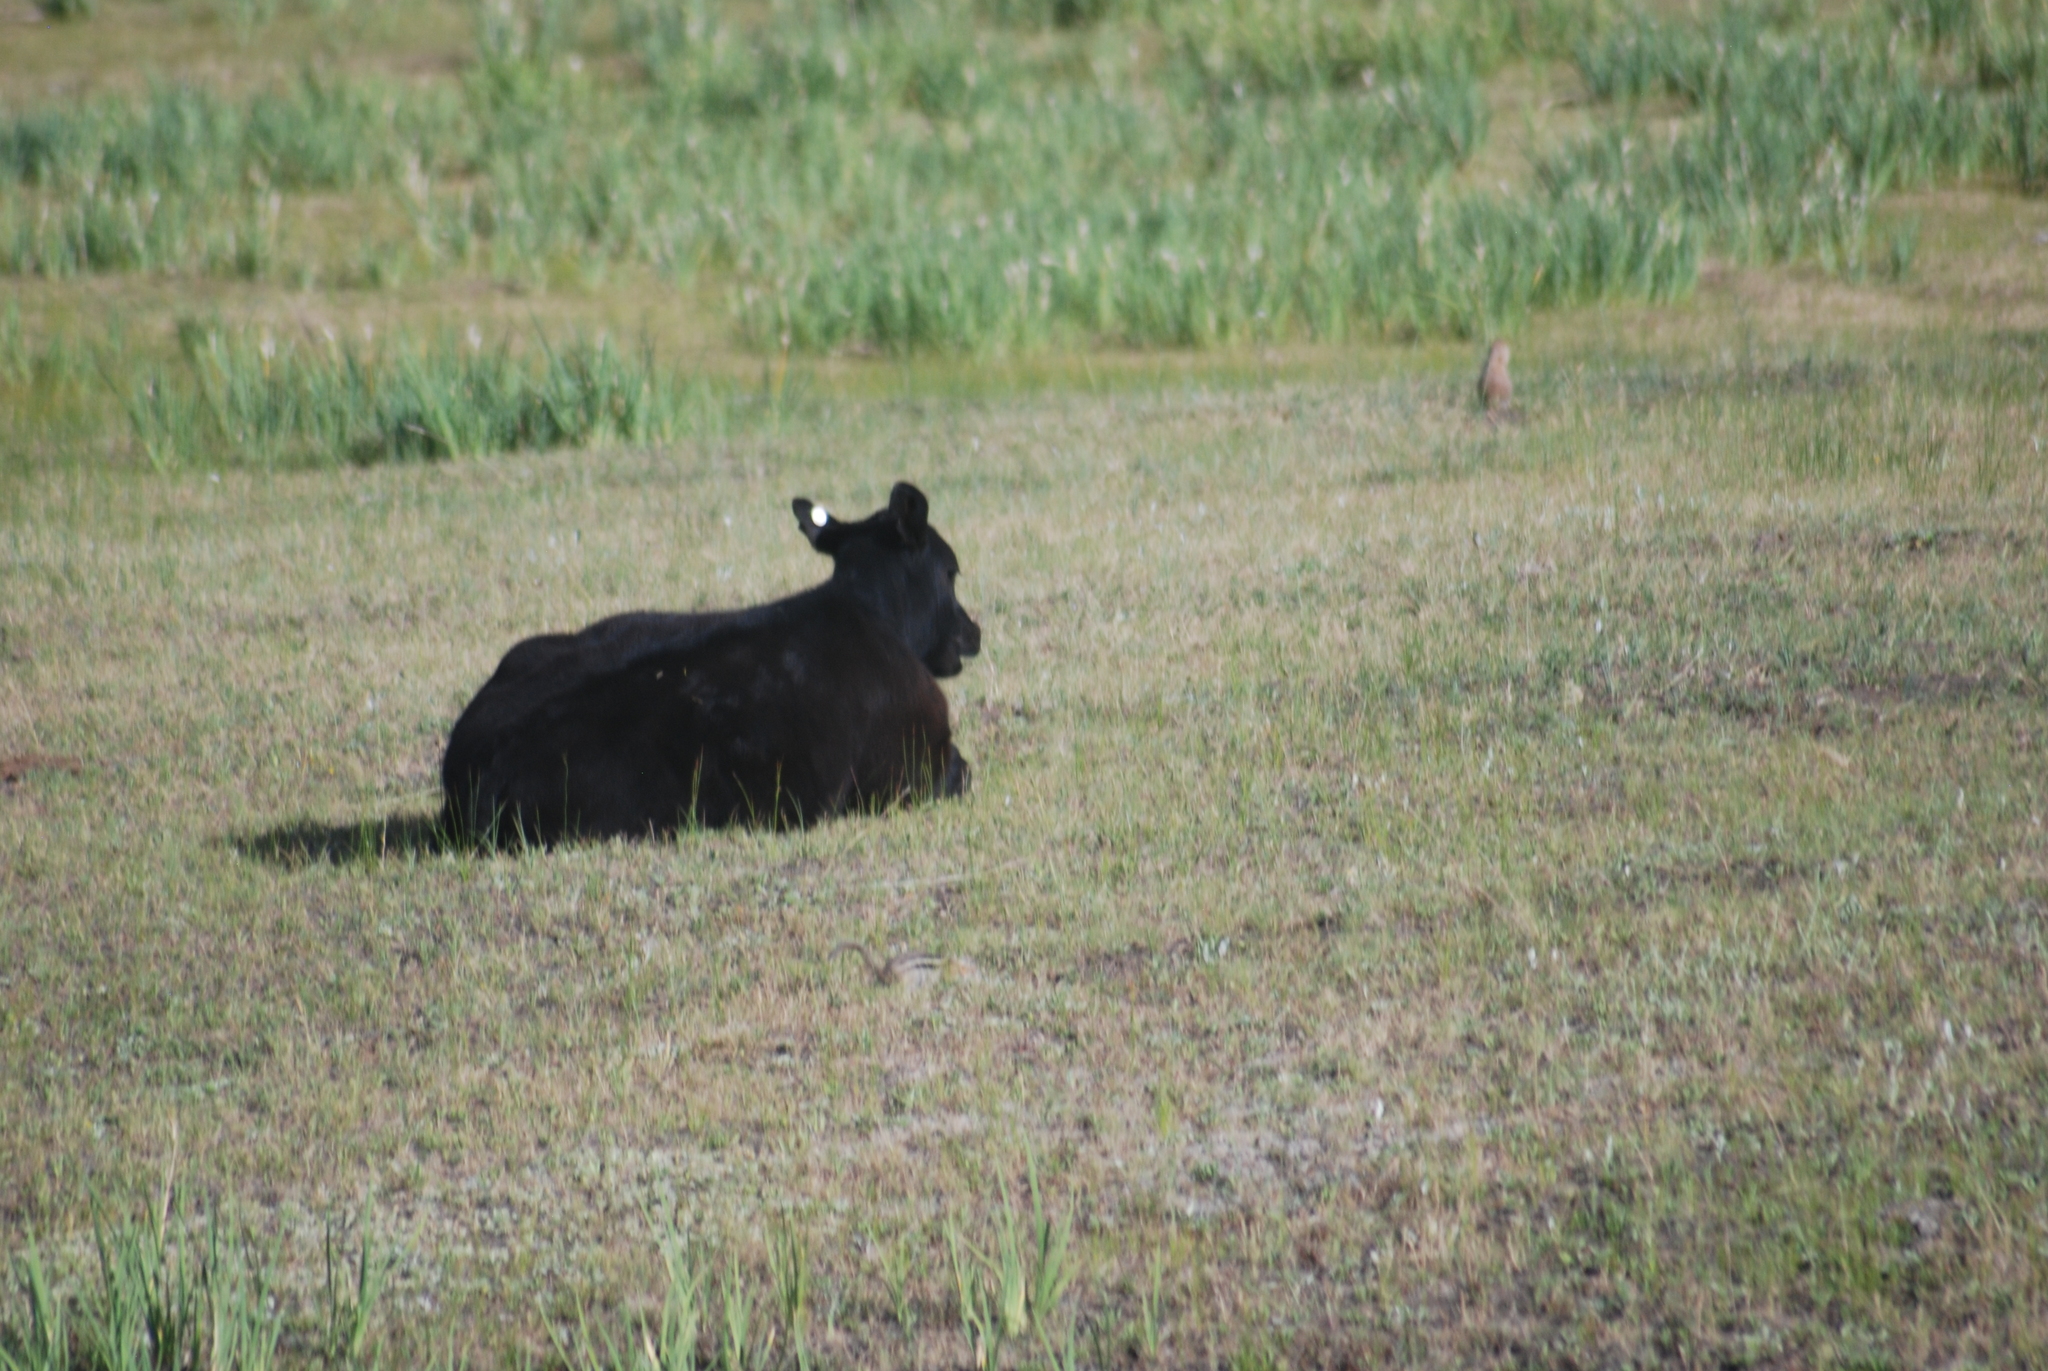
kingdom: Animalia
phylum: Chordata
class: Mammalia
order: Rodentia
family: Sciuridae
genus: Cynomys
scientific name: Cynomys gunnisoni
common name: Gunnison's prairie dog
